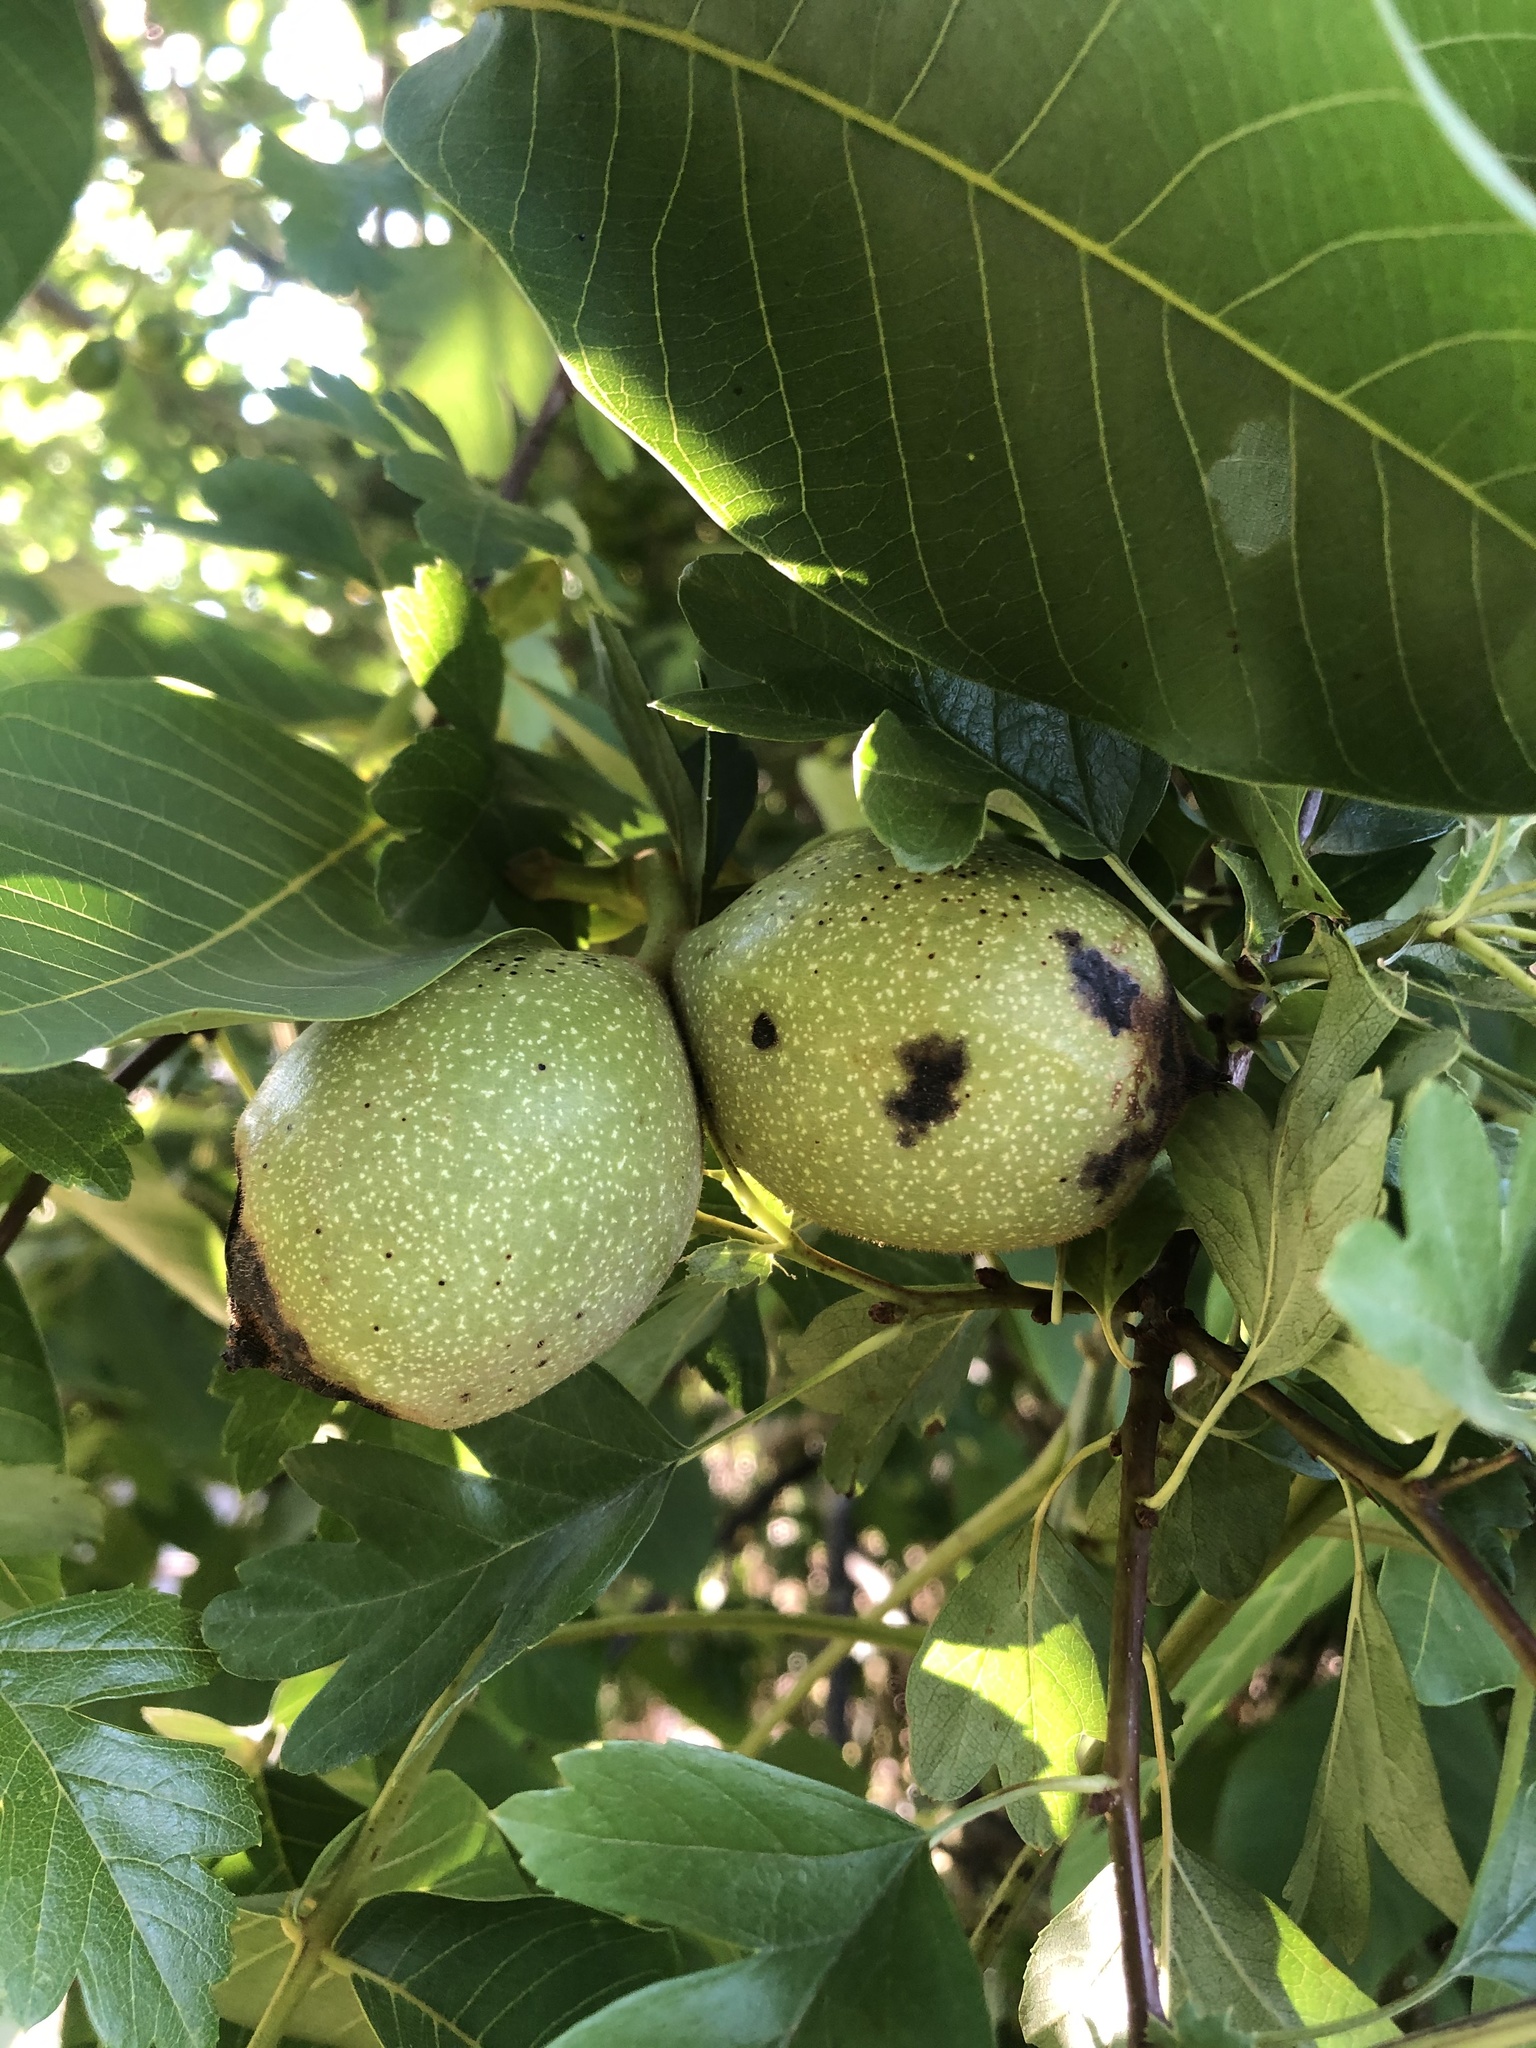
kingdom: Bacteria
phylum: Proteobacteria
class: Gammaproteobacteria
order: Xanthomonadales
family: Xanthomonadaceae
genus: Xanthomonas
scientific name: Xanthomonas juglandis
